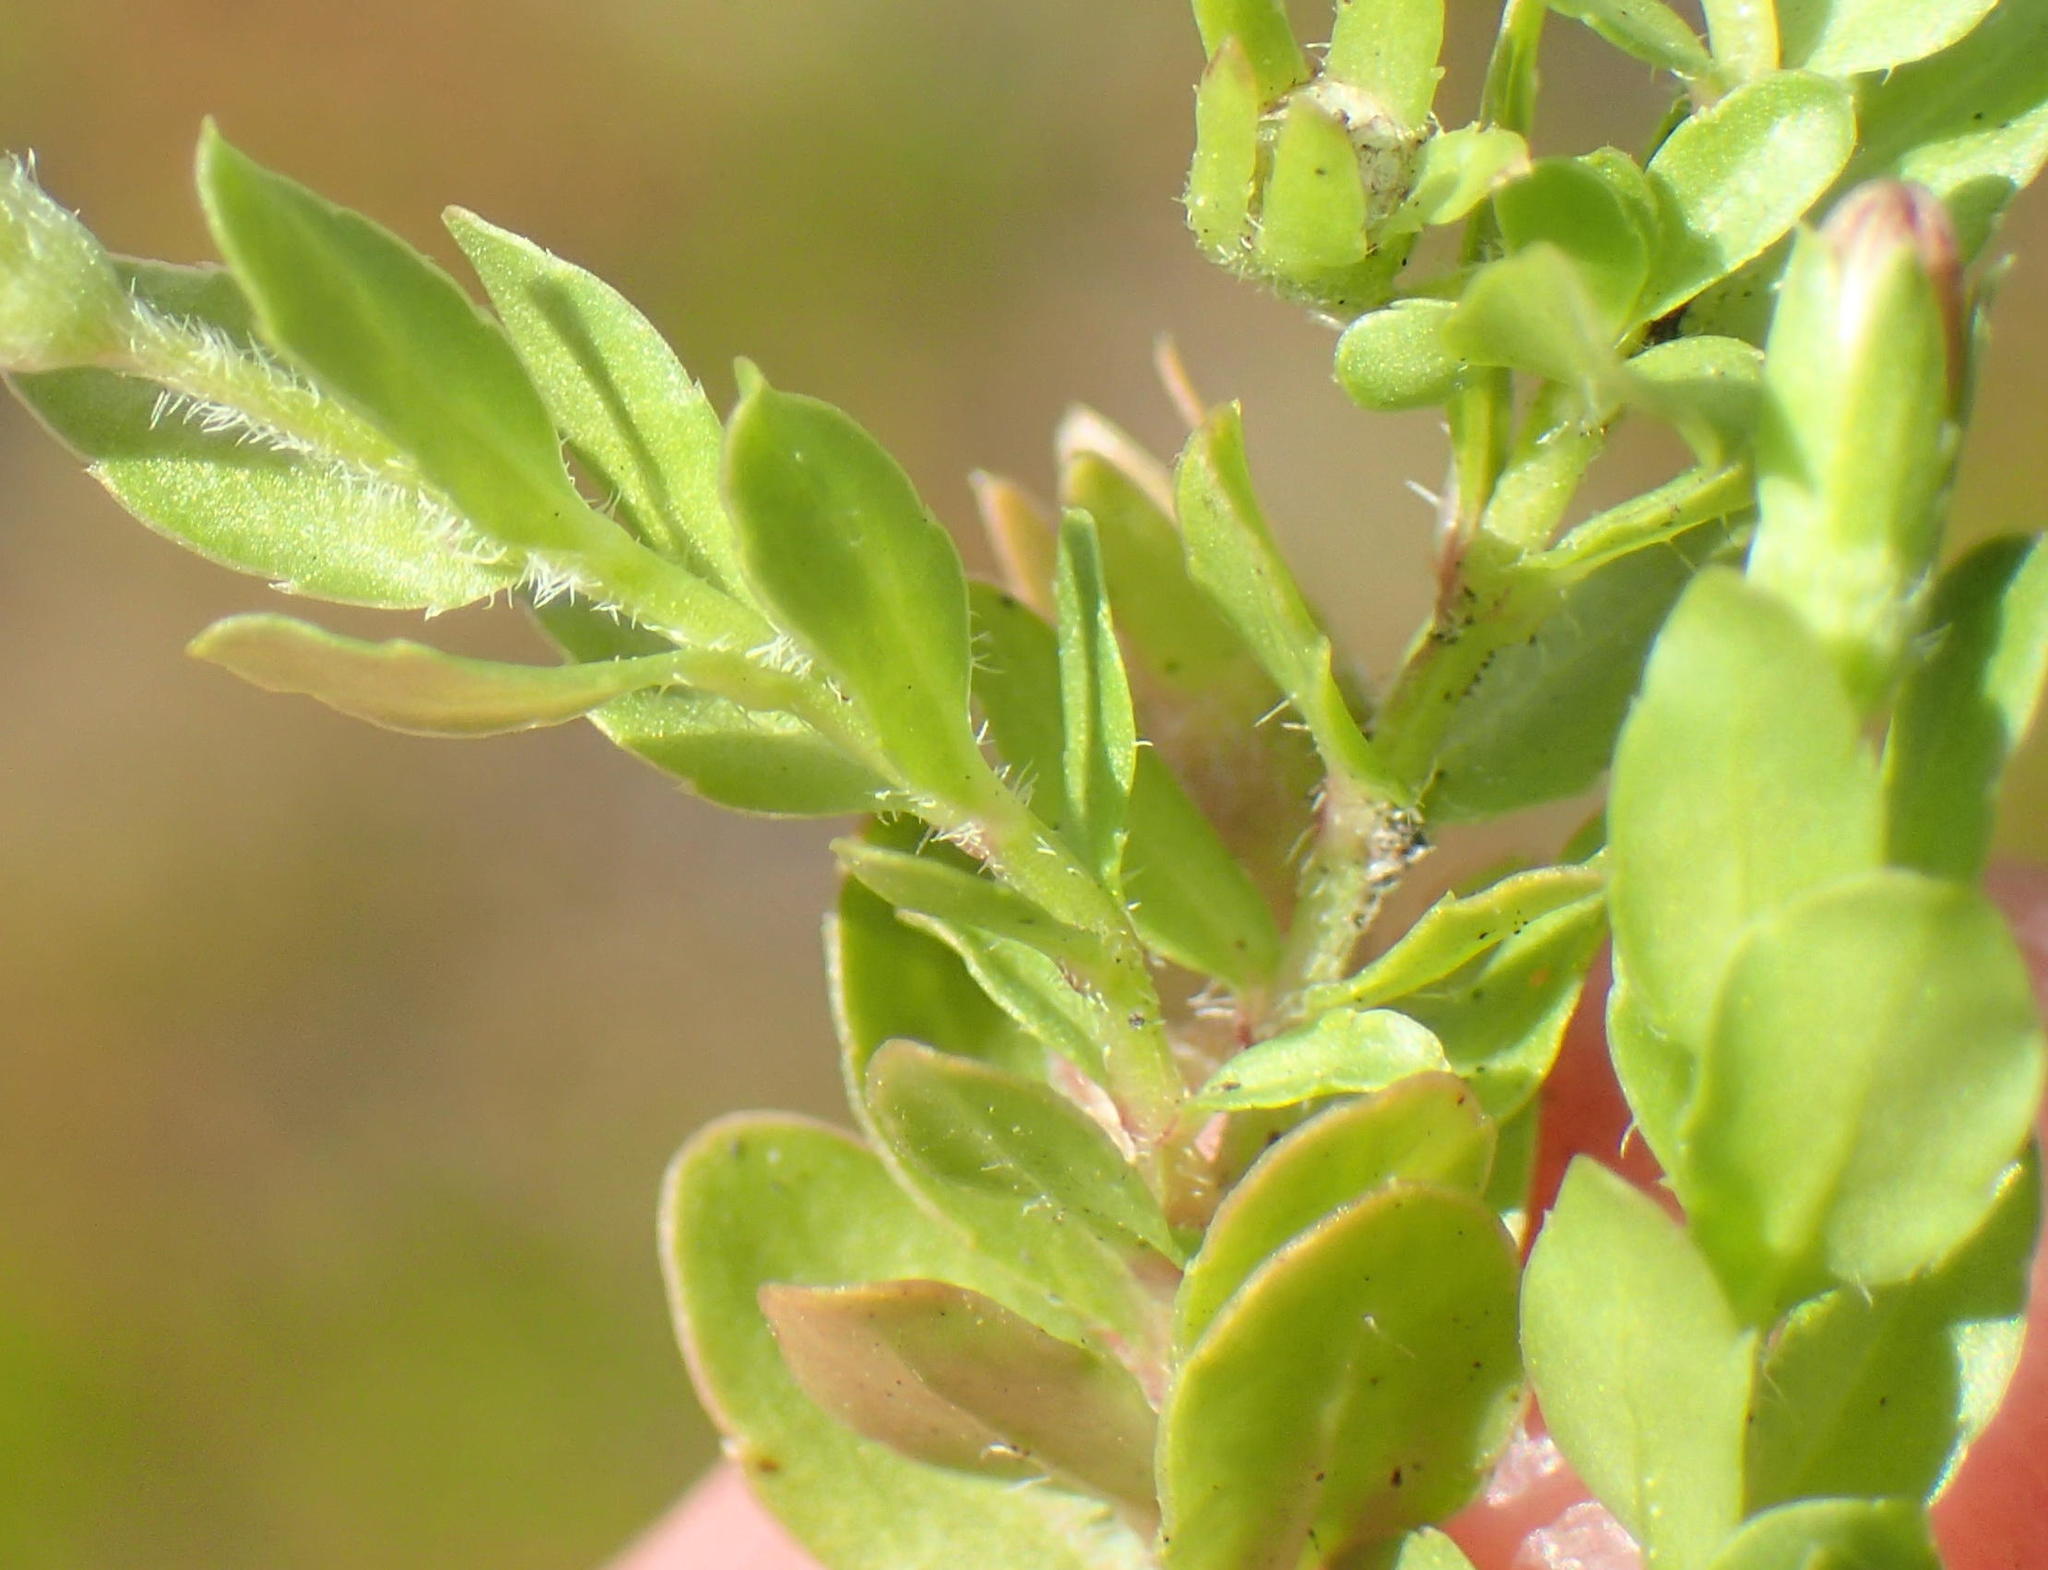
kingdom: Plantae
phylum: Tracheophyta
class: Magnoliopsida
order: Asterales
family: Campanulaceae
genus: Wahlenbergia
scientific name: Wahlenbergia procumbens
